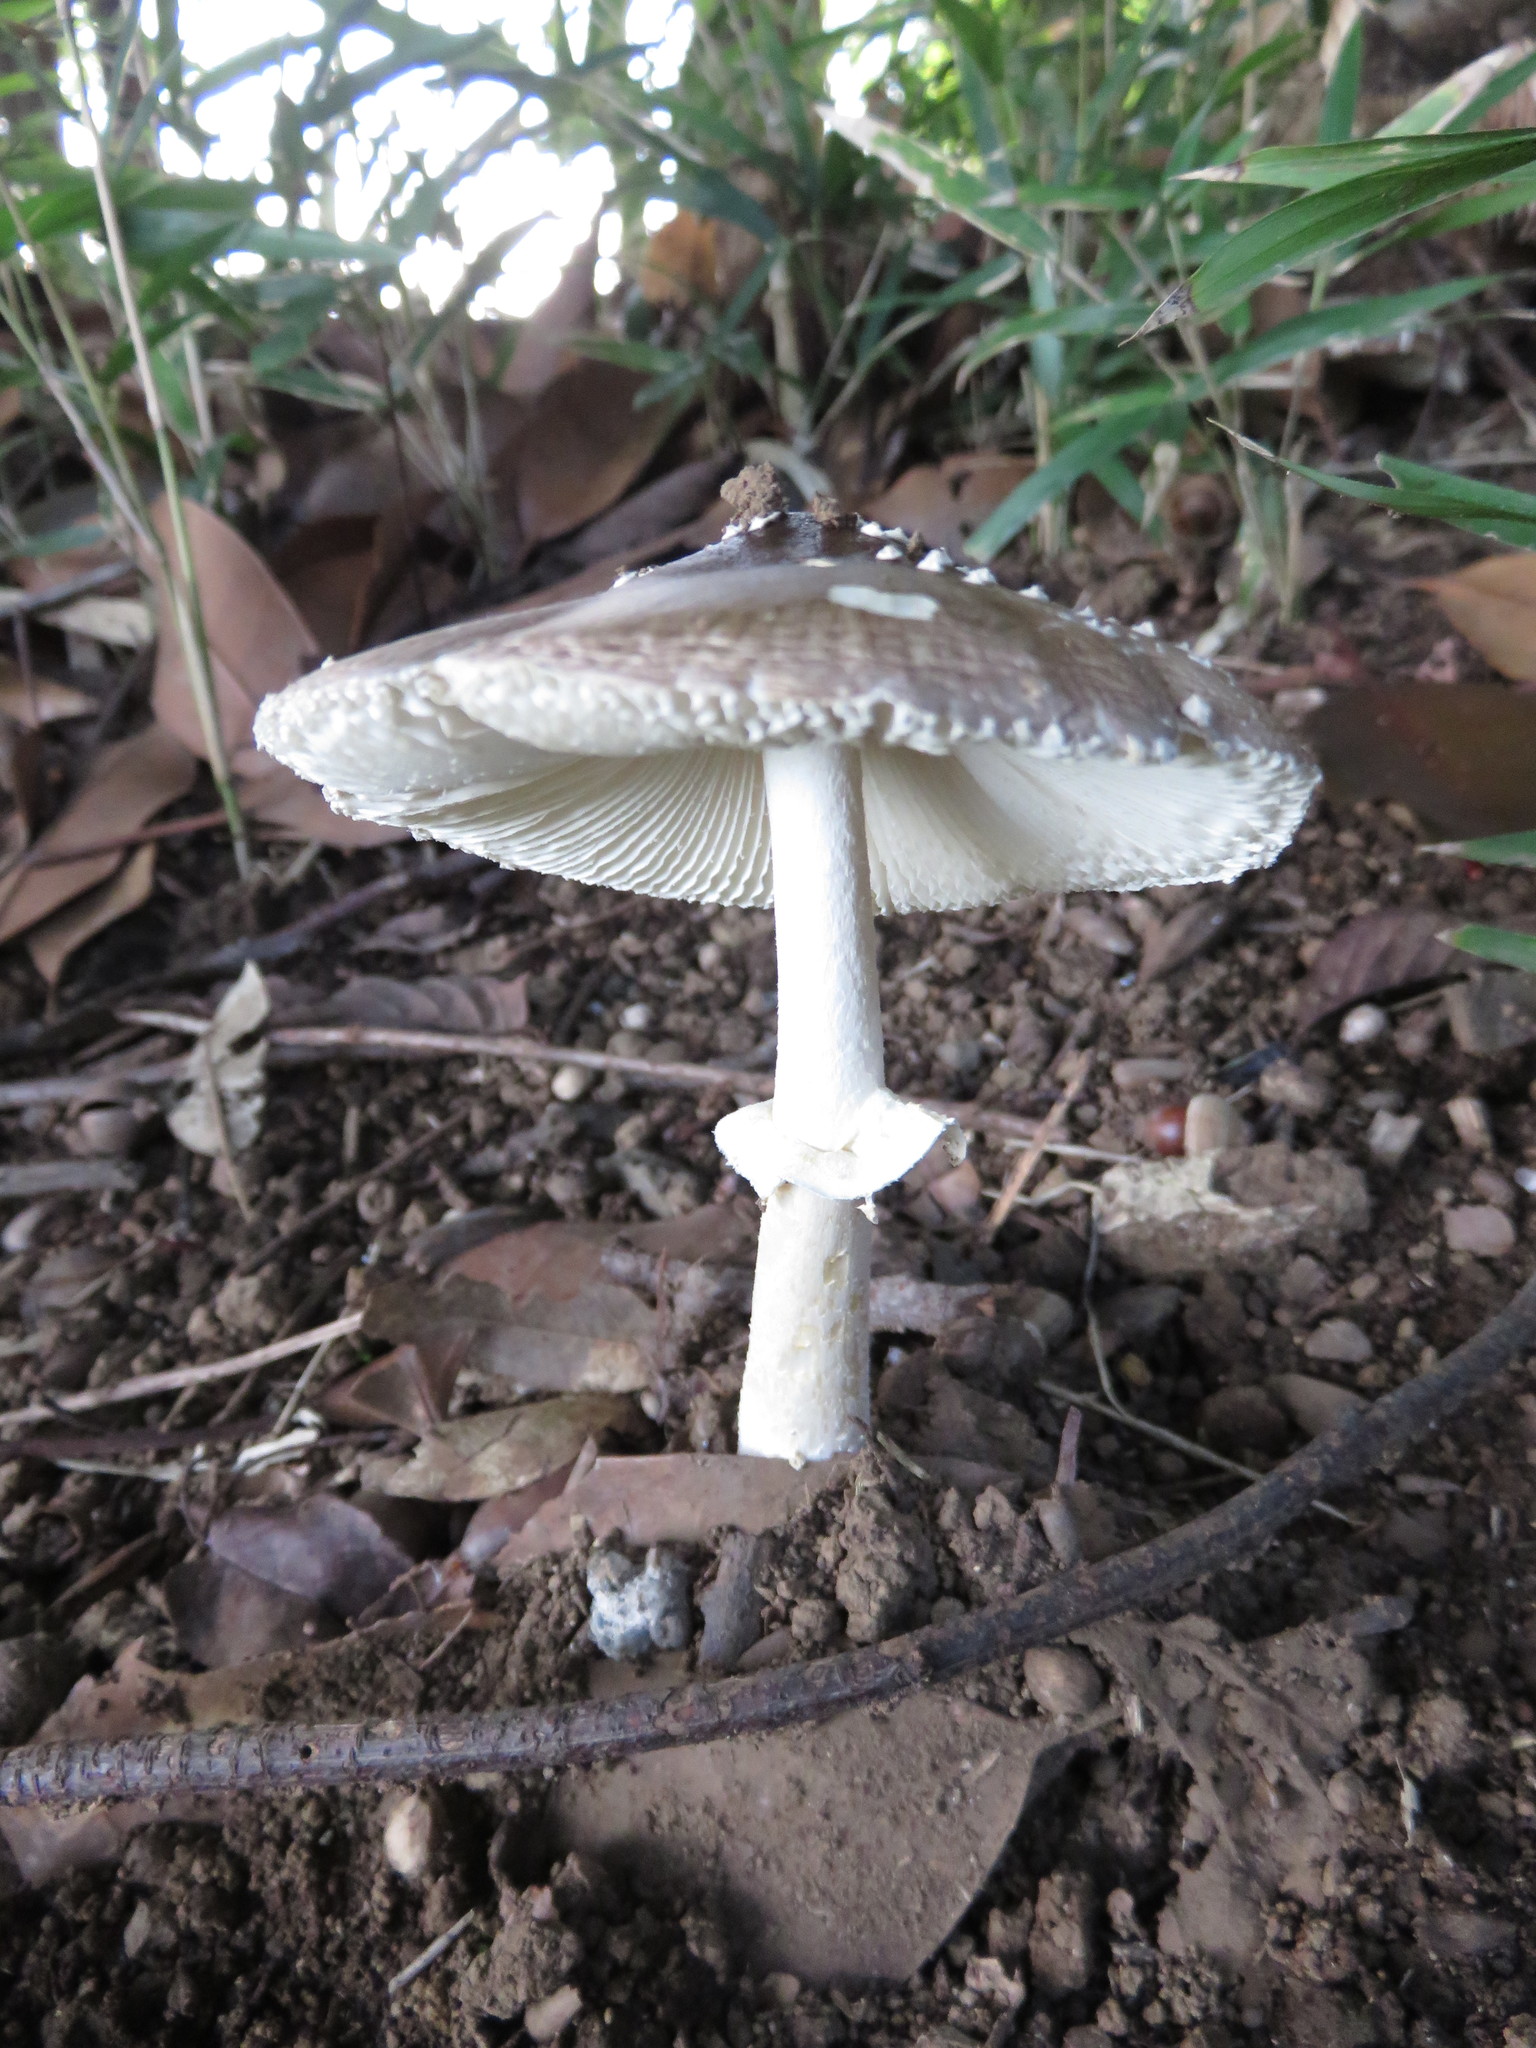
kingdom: Fungi
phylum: Basidiomycota
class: Agaricomycetes
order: Agaricales
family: Amanitaceae
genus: Amanita
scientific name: Amanita subglobosa
